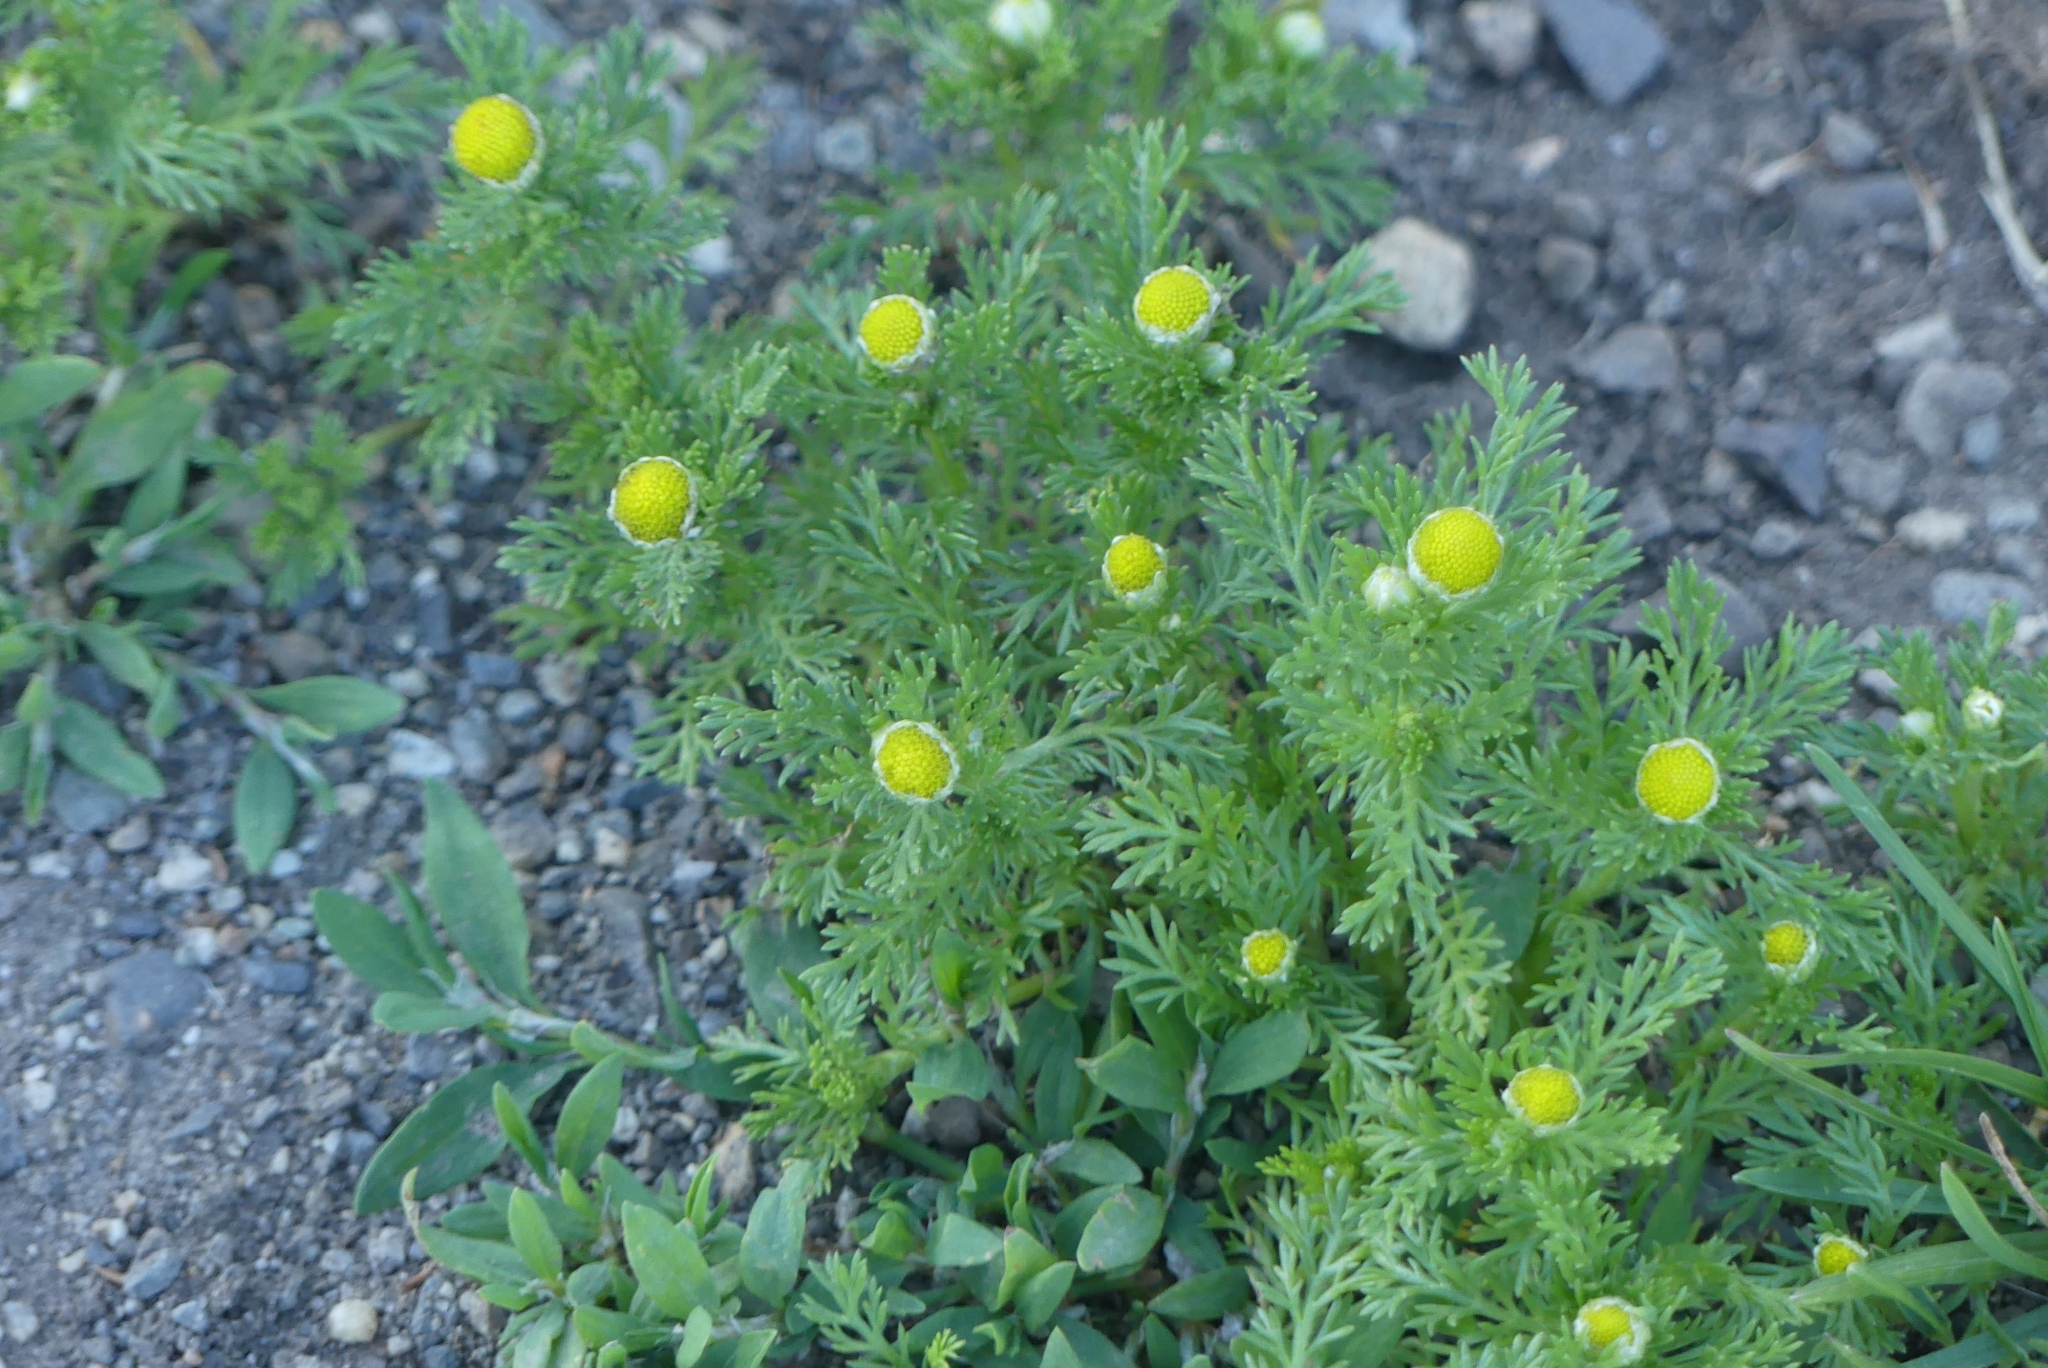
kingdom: Plantae
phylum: Tracheophyta
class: Magnoliopsida
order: Asterales
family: Asteraceae
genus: Matricaria
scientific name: Matricaria discoidea
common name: Disc mayweed
